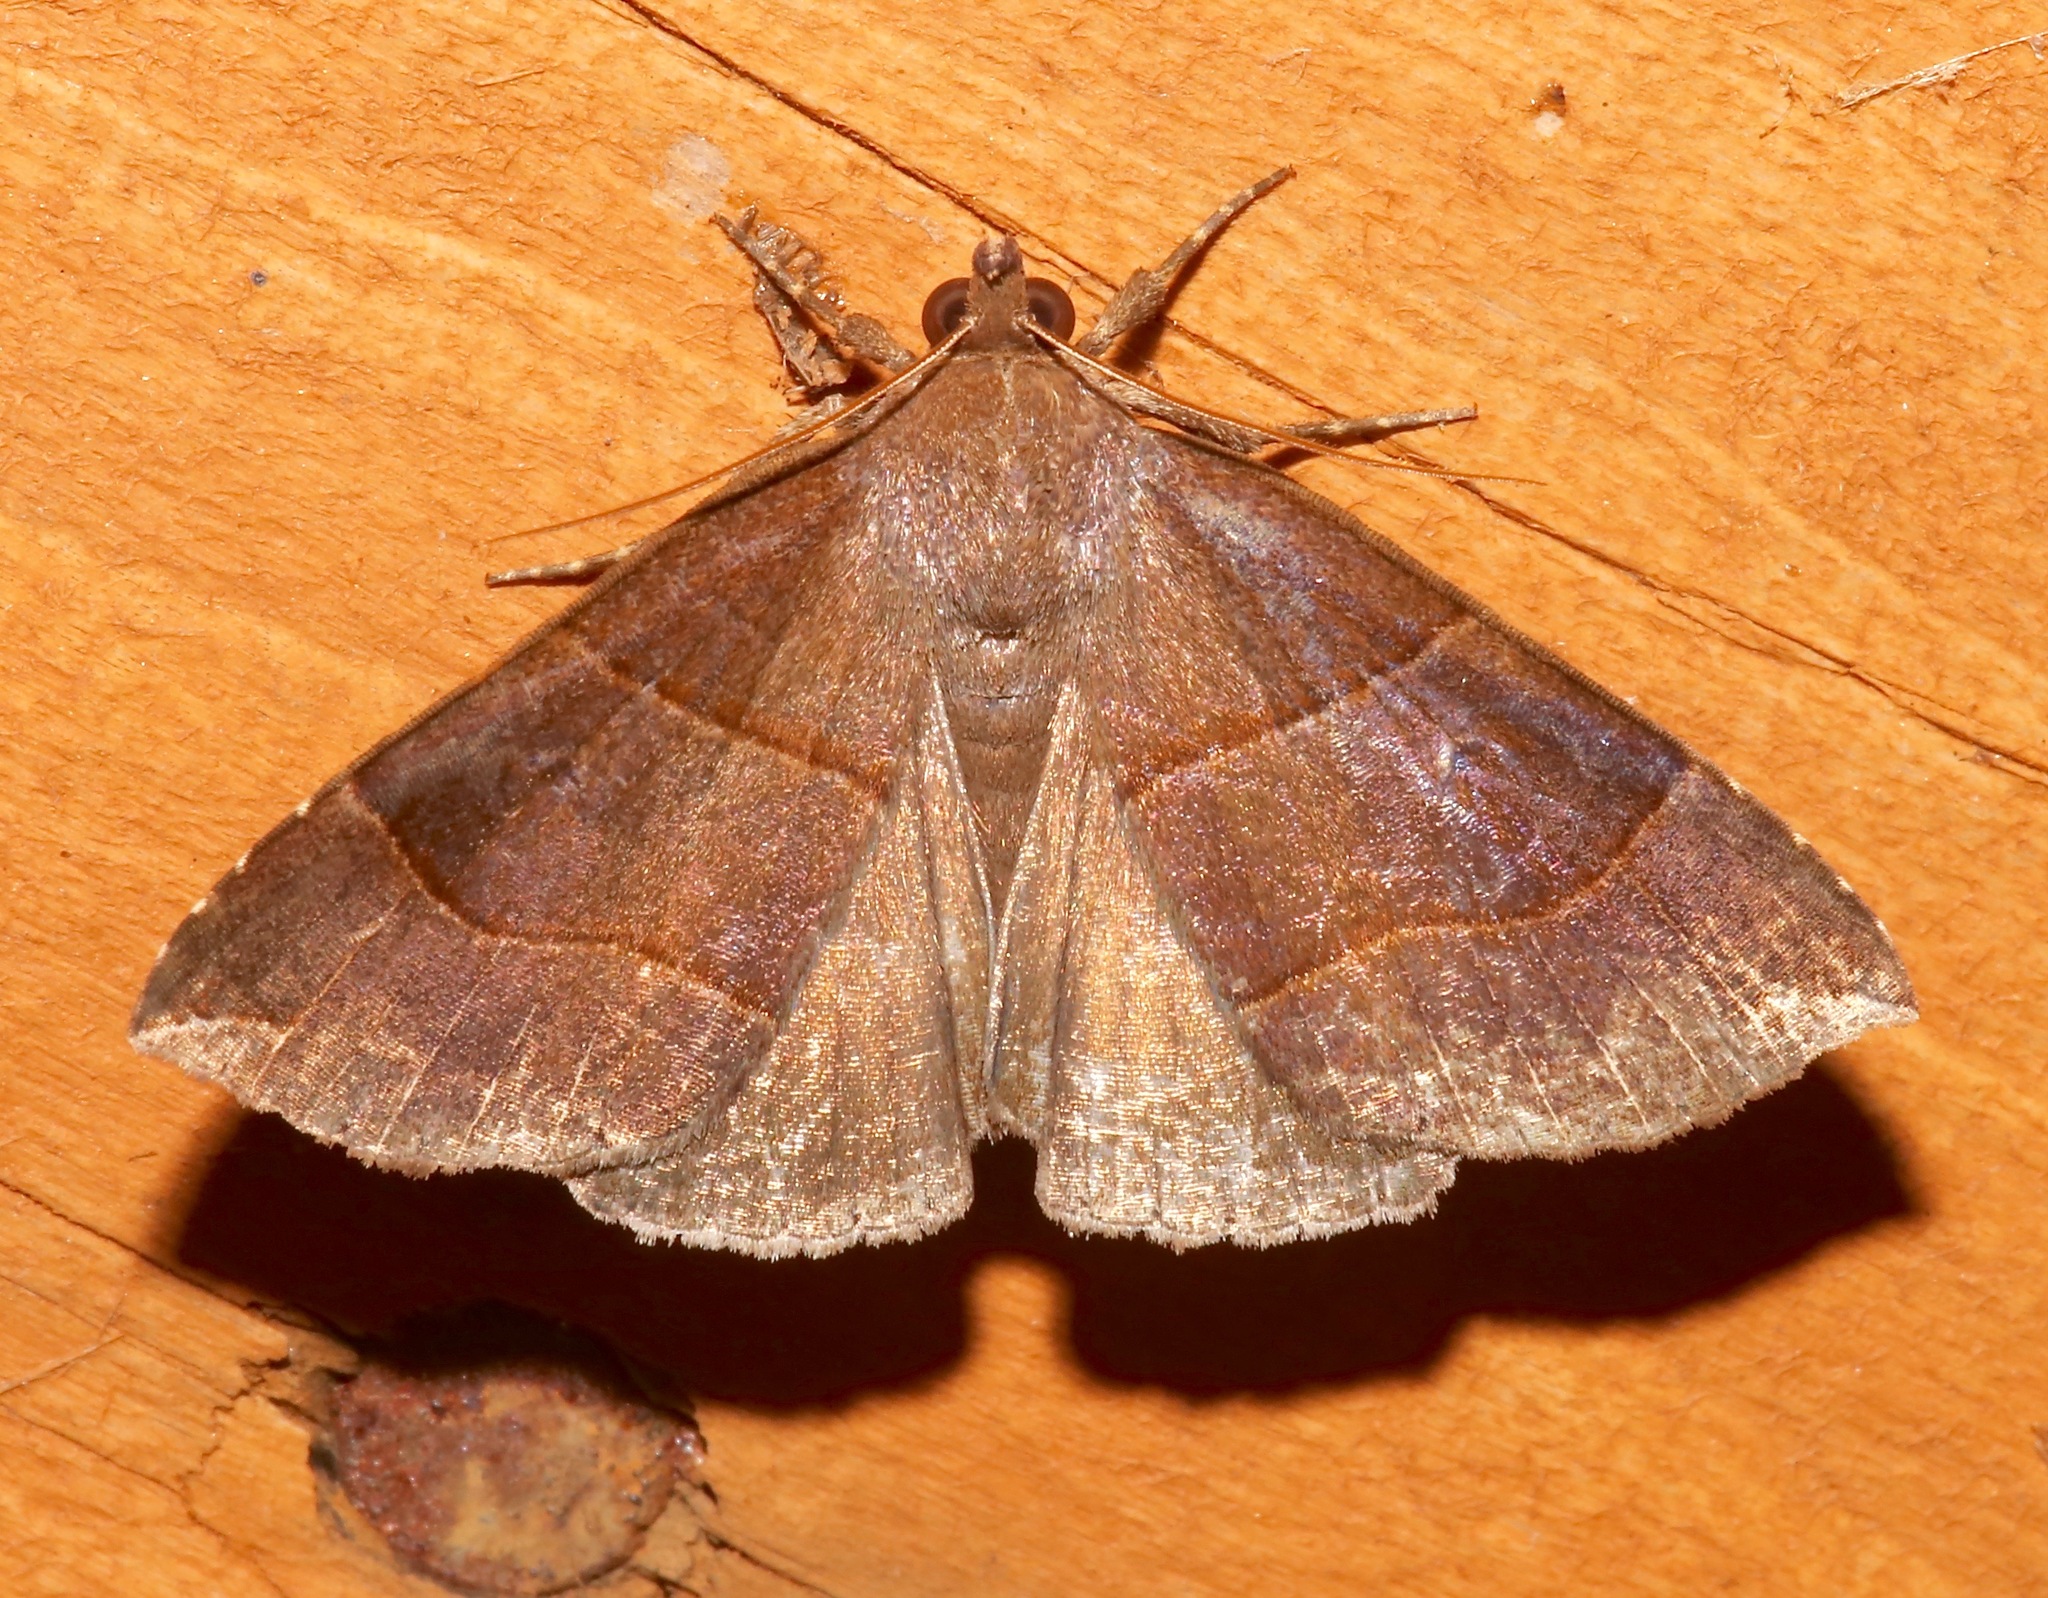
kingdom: Animalia
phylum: Arthropoda
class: Insecta
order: Lepidoptera
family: Erebidae
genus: Parallelia
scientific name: Parallelia bistriaris
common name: Maple looper moth
